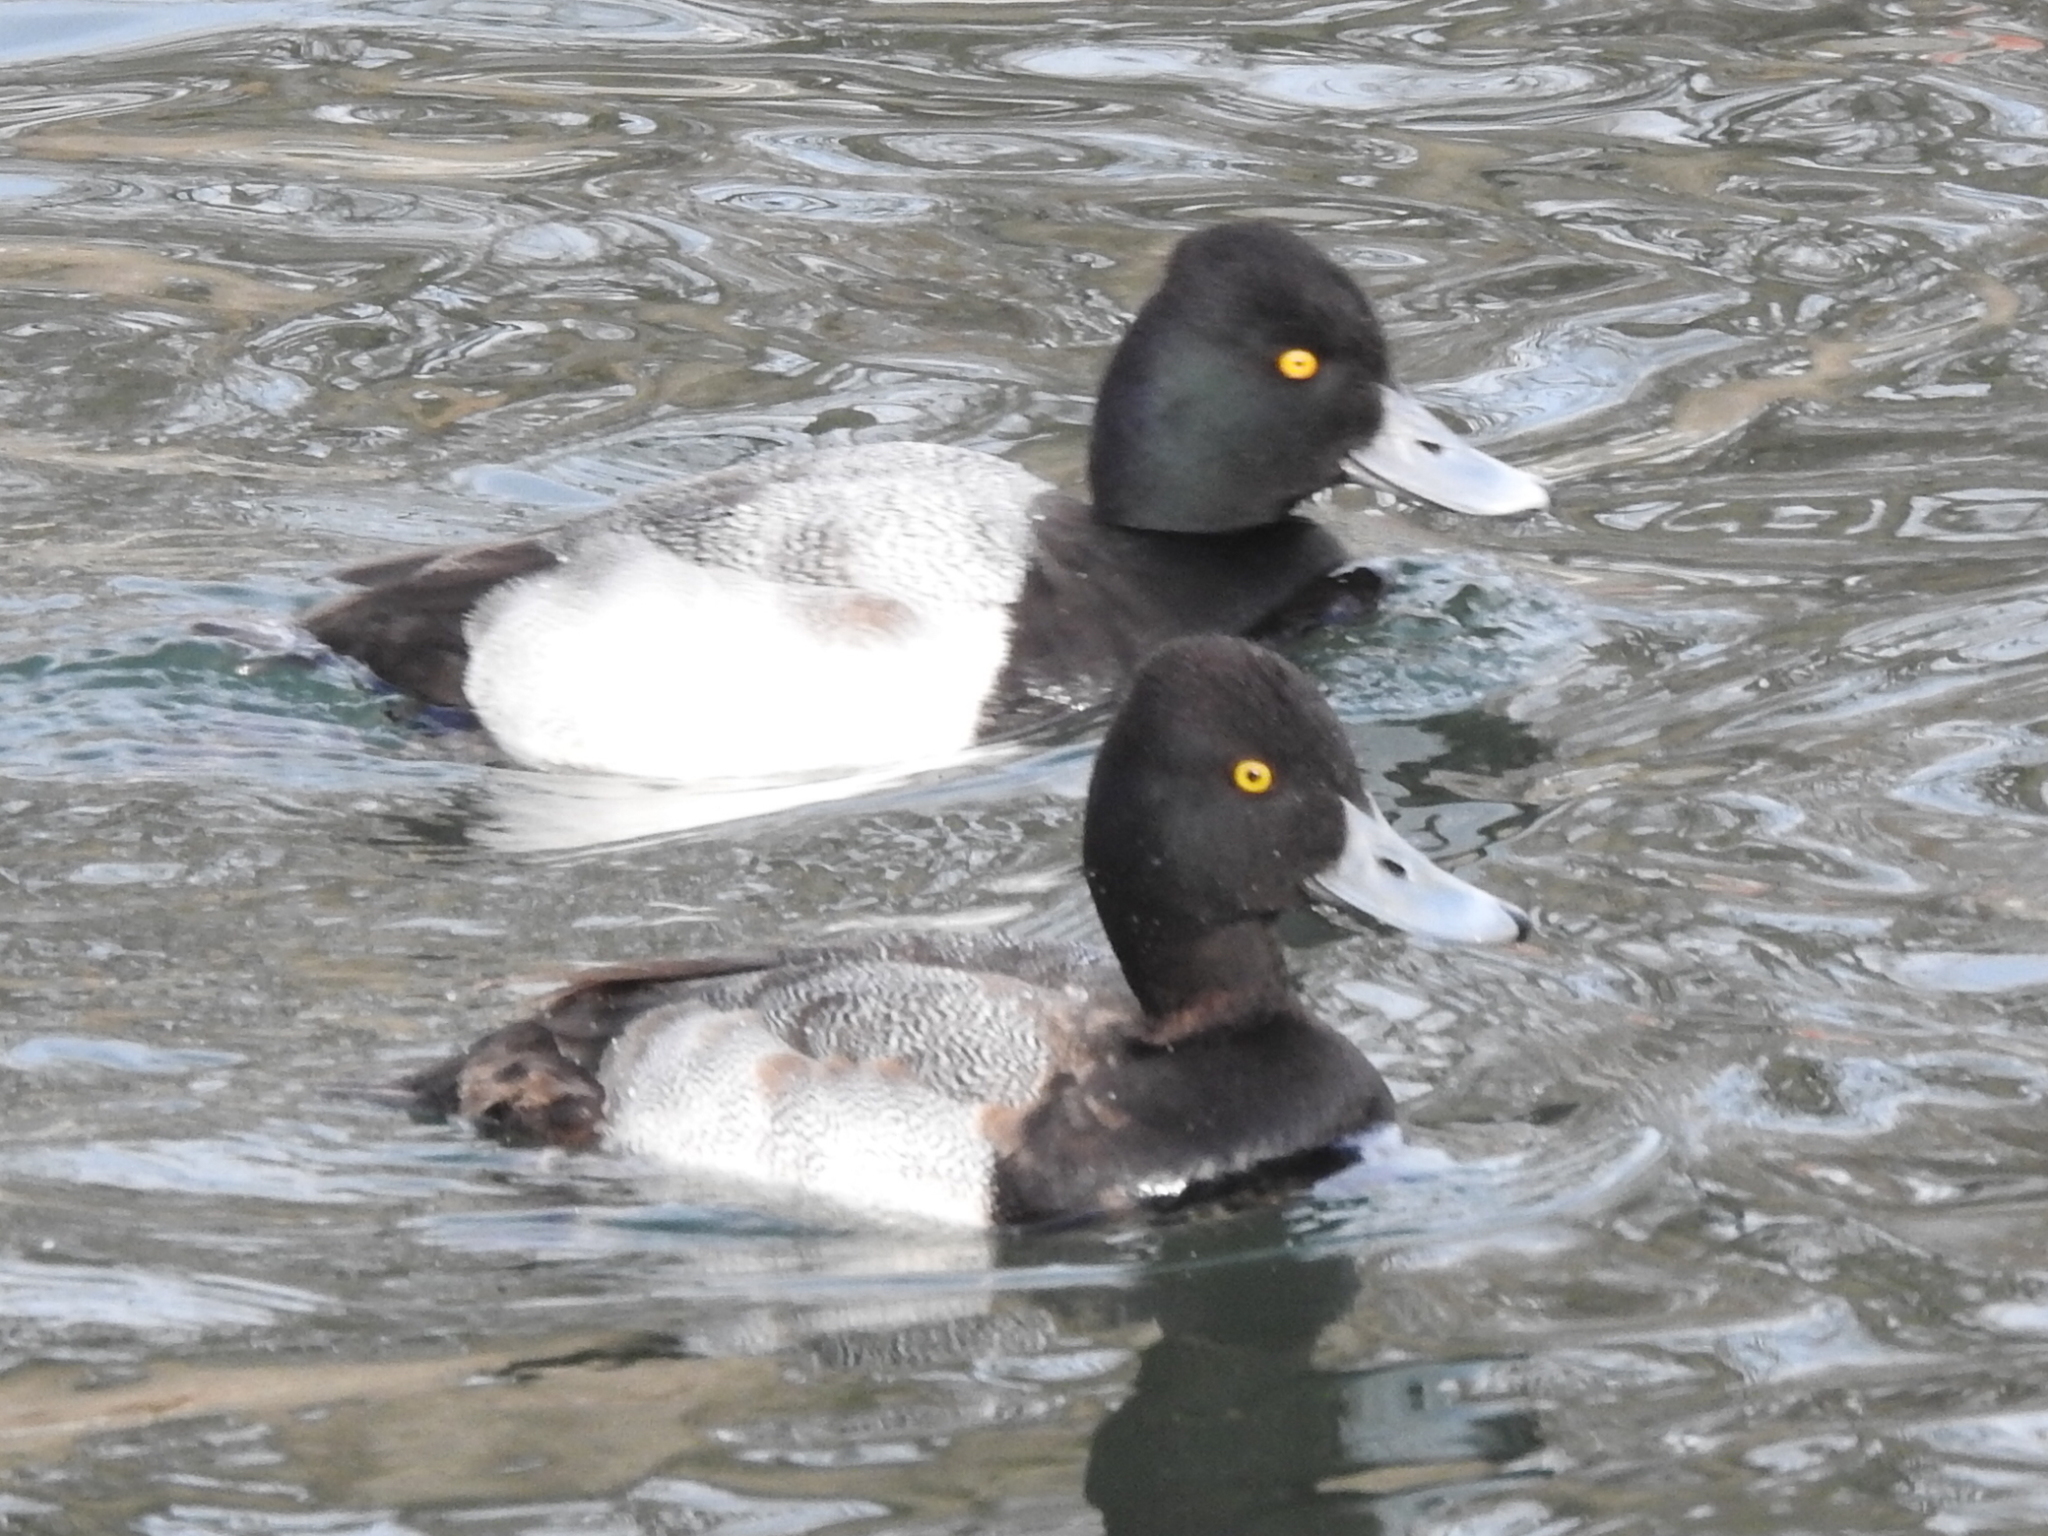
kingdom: Animalia
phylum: Chordata
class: Aves
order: Anseriformes
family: Anatidae
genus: Aythya
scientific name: Aythya affinis
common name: Lesser scaup
